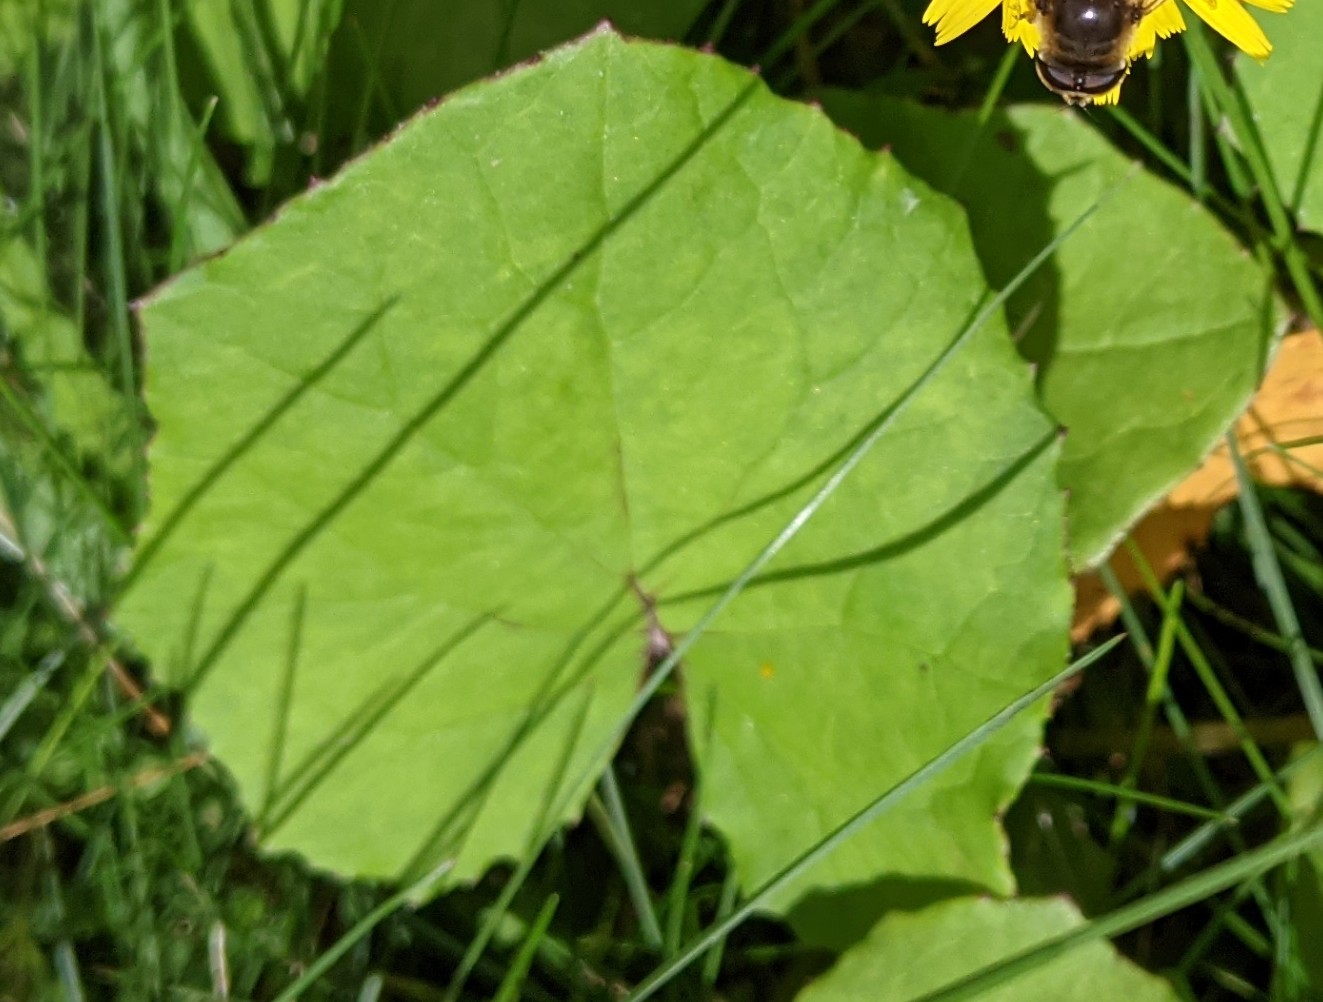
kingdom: Plantae
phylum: Tracheophyta
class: Magnoliopsida
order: Asterales
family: Asteraceae
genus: Tussilago
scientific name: Tussilago farfara
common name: Coltsfoot
